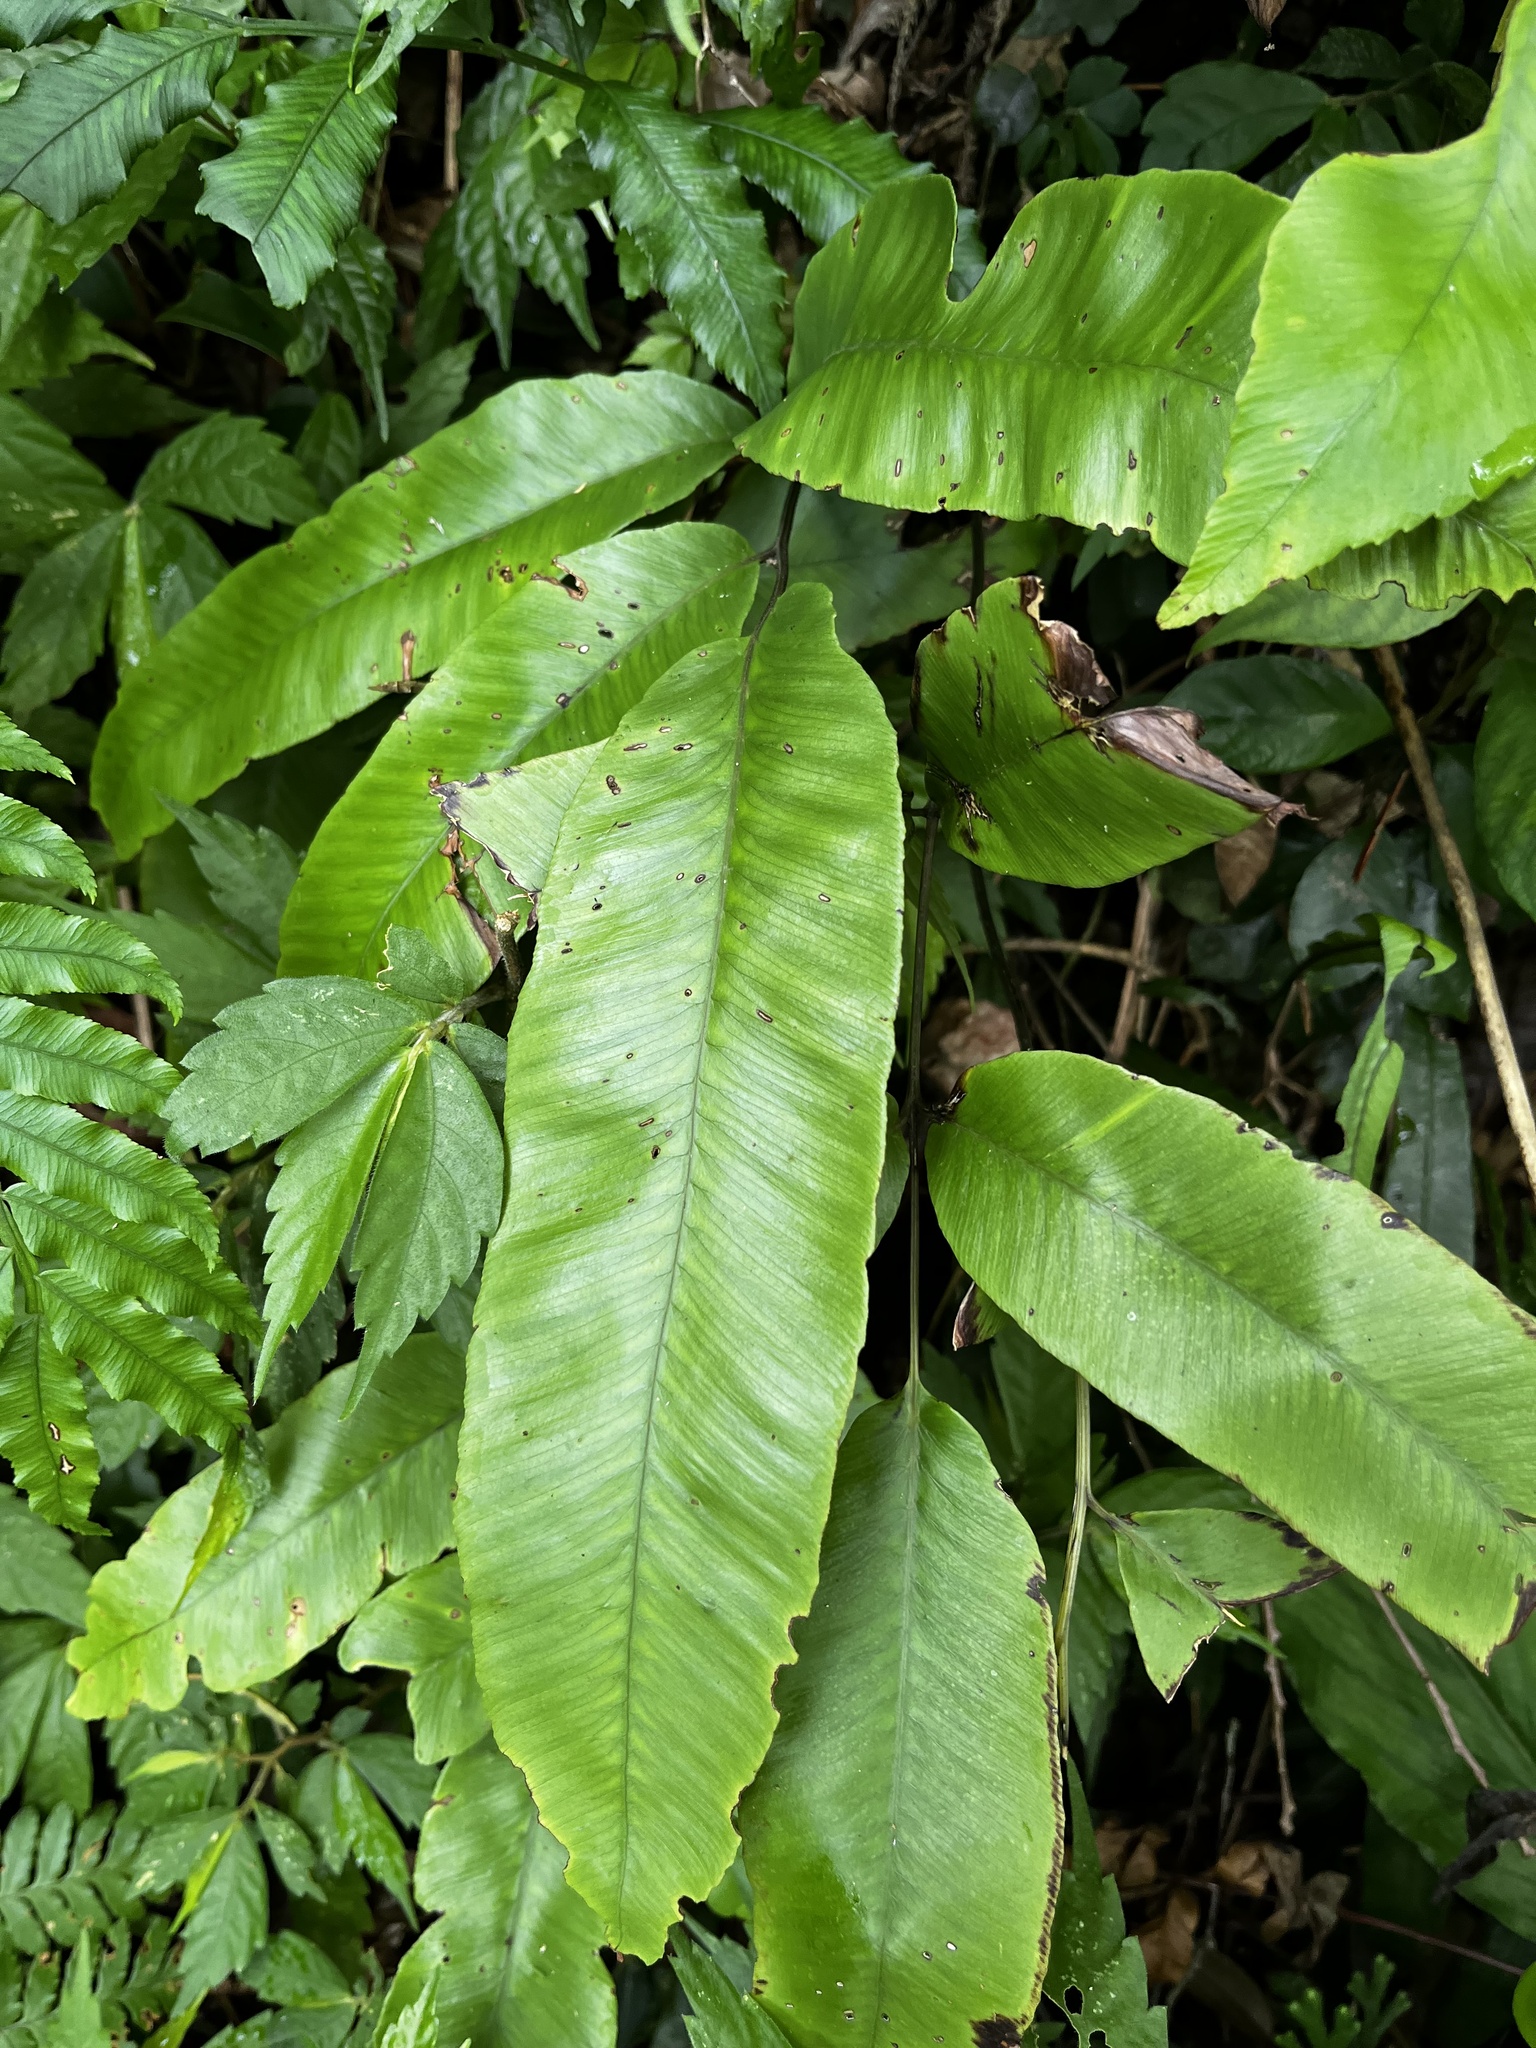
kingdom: Plantae
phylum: Tracheophyta
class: Polypodiopsida
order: Polypodiales
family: Athyriaceae
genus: Diplazium
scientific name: Diplazium lineolatum
